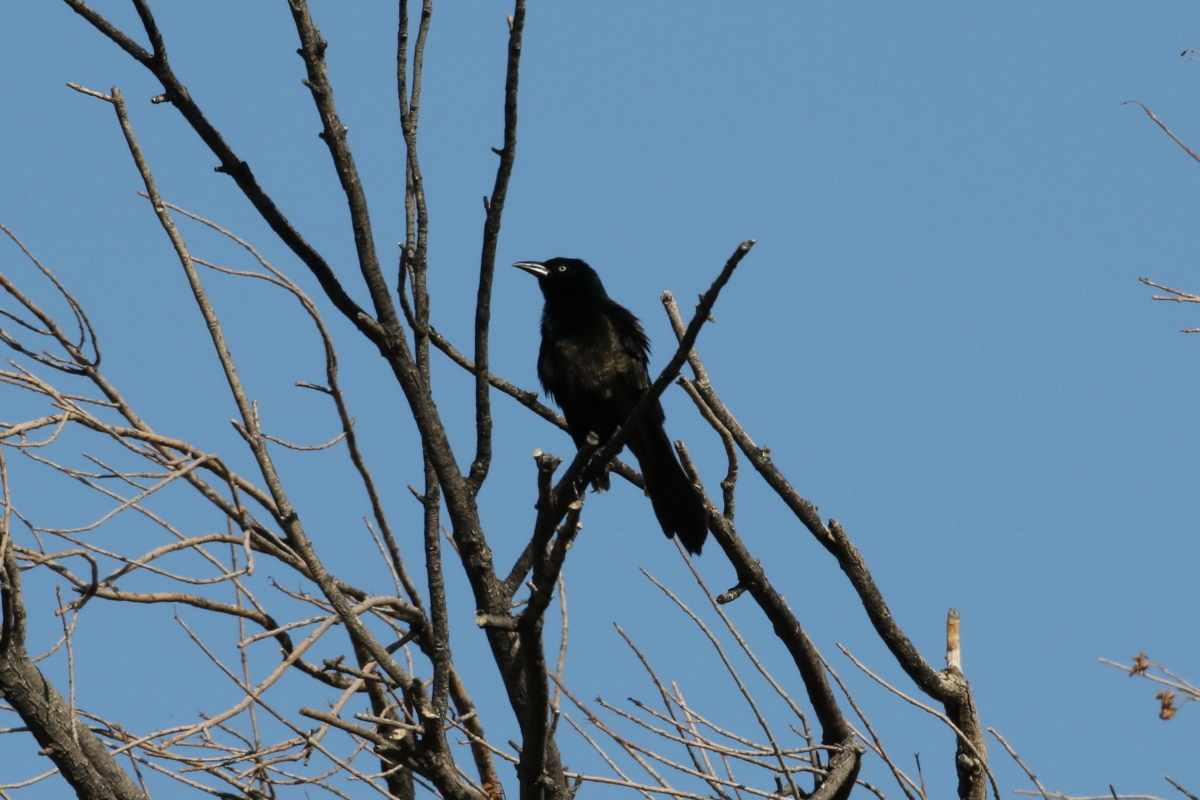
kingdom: Animalia
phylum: Chordata
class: Aves
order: Passeriformes
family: Icteridae
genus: Quiscalus
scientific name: Quiscalus quiscula
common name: Common grackle
